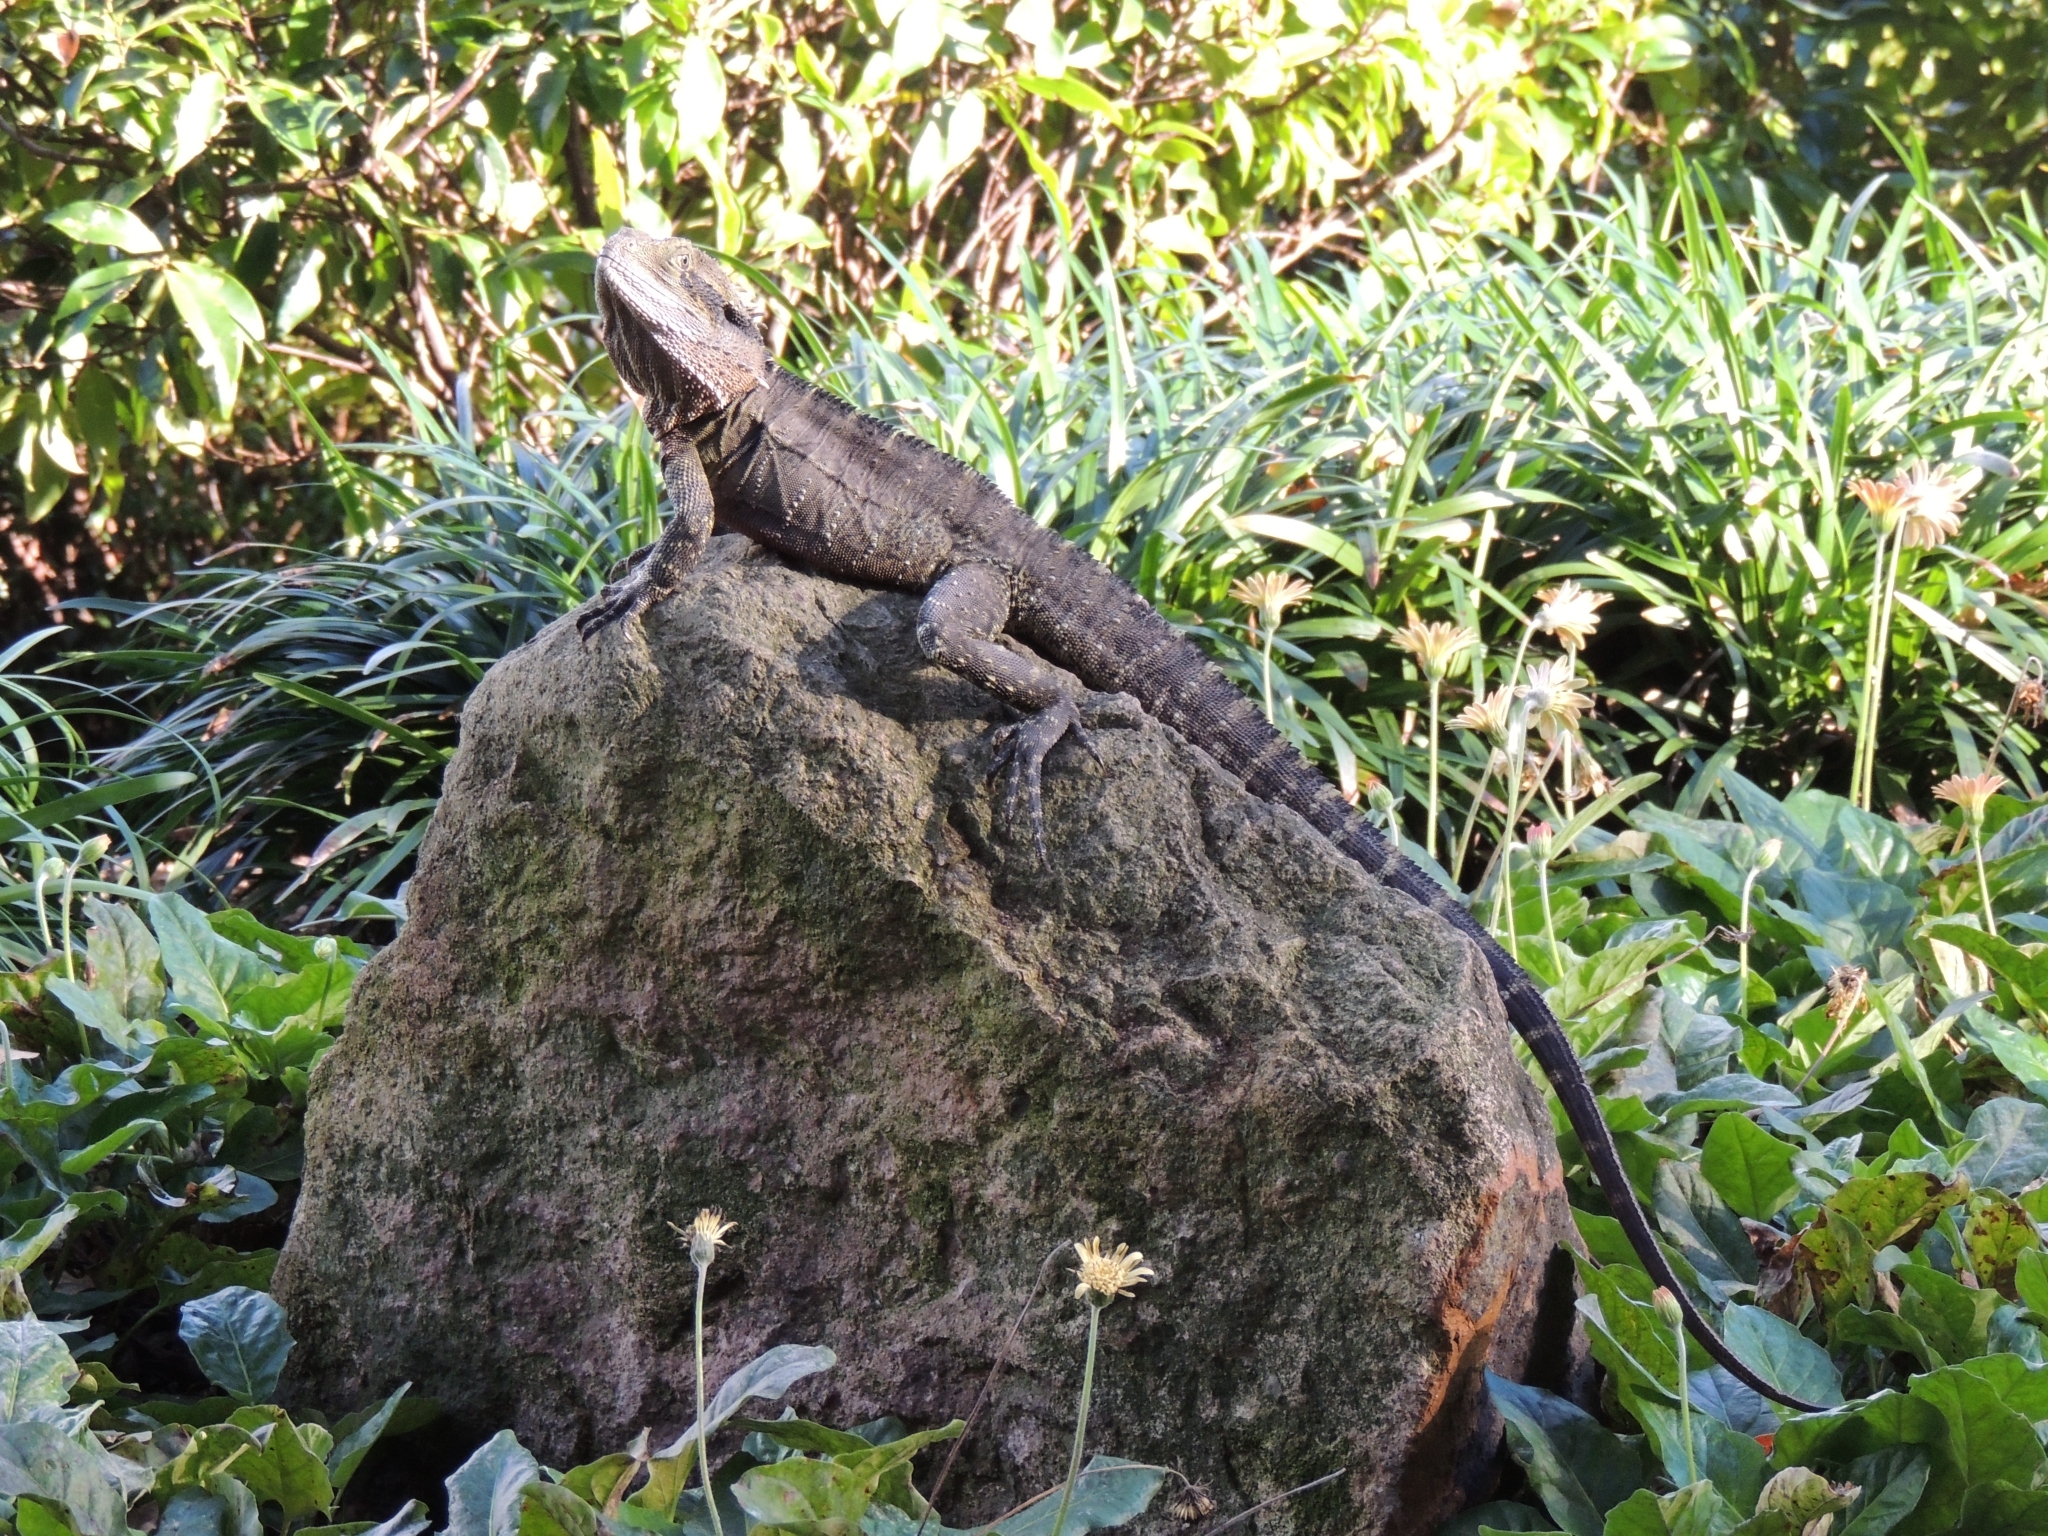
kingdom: Animalia
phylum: Chordata
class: Squamata
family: Agamidae
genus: Intellagama
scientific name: Intellagama lesueurii
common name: Eastern water dragon
